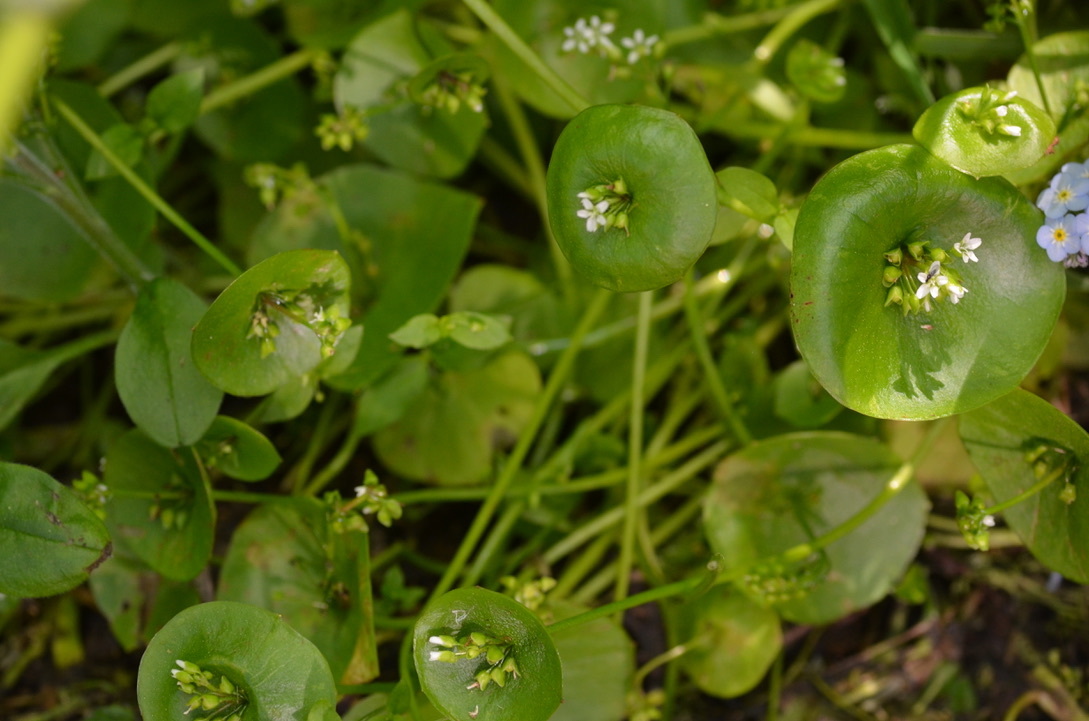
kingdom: Plantae
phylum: Tracheophyta
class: Magnoliopsida
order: Caryophyllales
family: Montiaceae
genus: Claytonia
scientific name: Claytonia perfoliata
